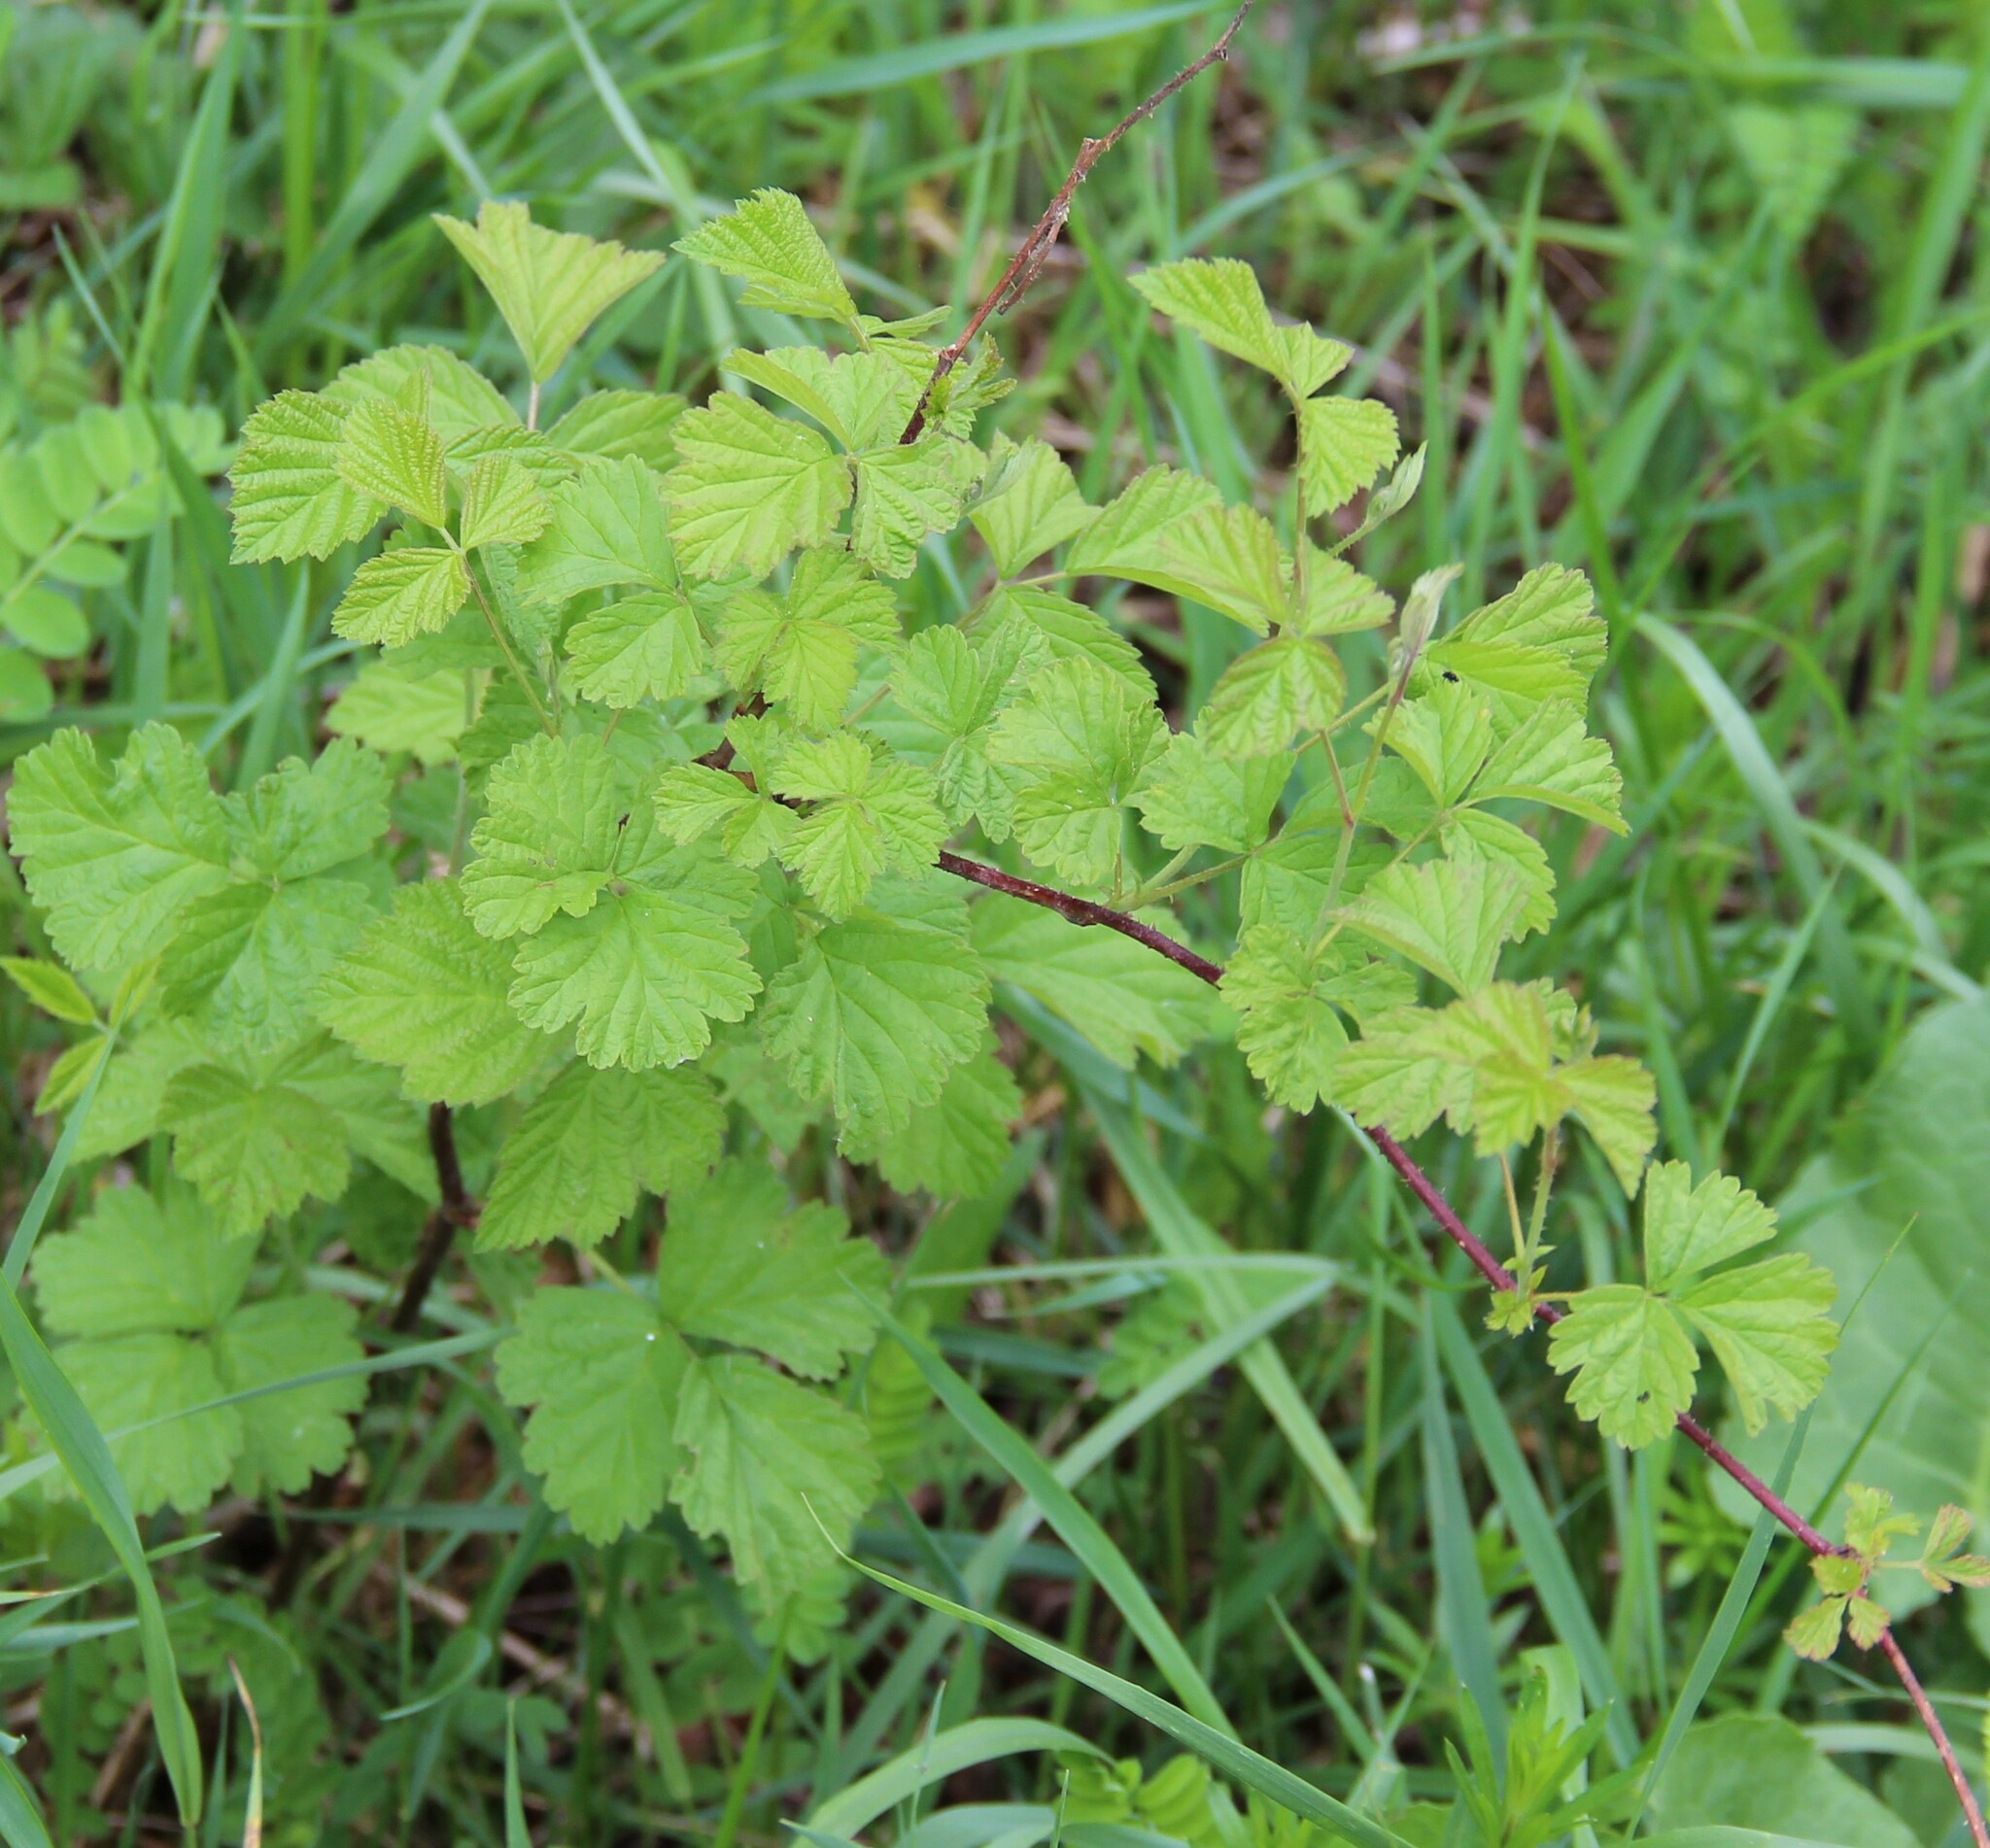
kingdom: Plantae
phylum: Tracheophyta
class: Magnoliopsida
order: Rosales
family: Rosaceae
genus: Rubus
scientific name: Rubus caesius
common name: Dewberry
